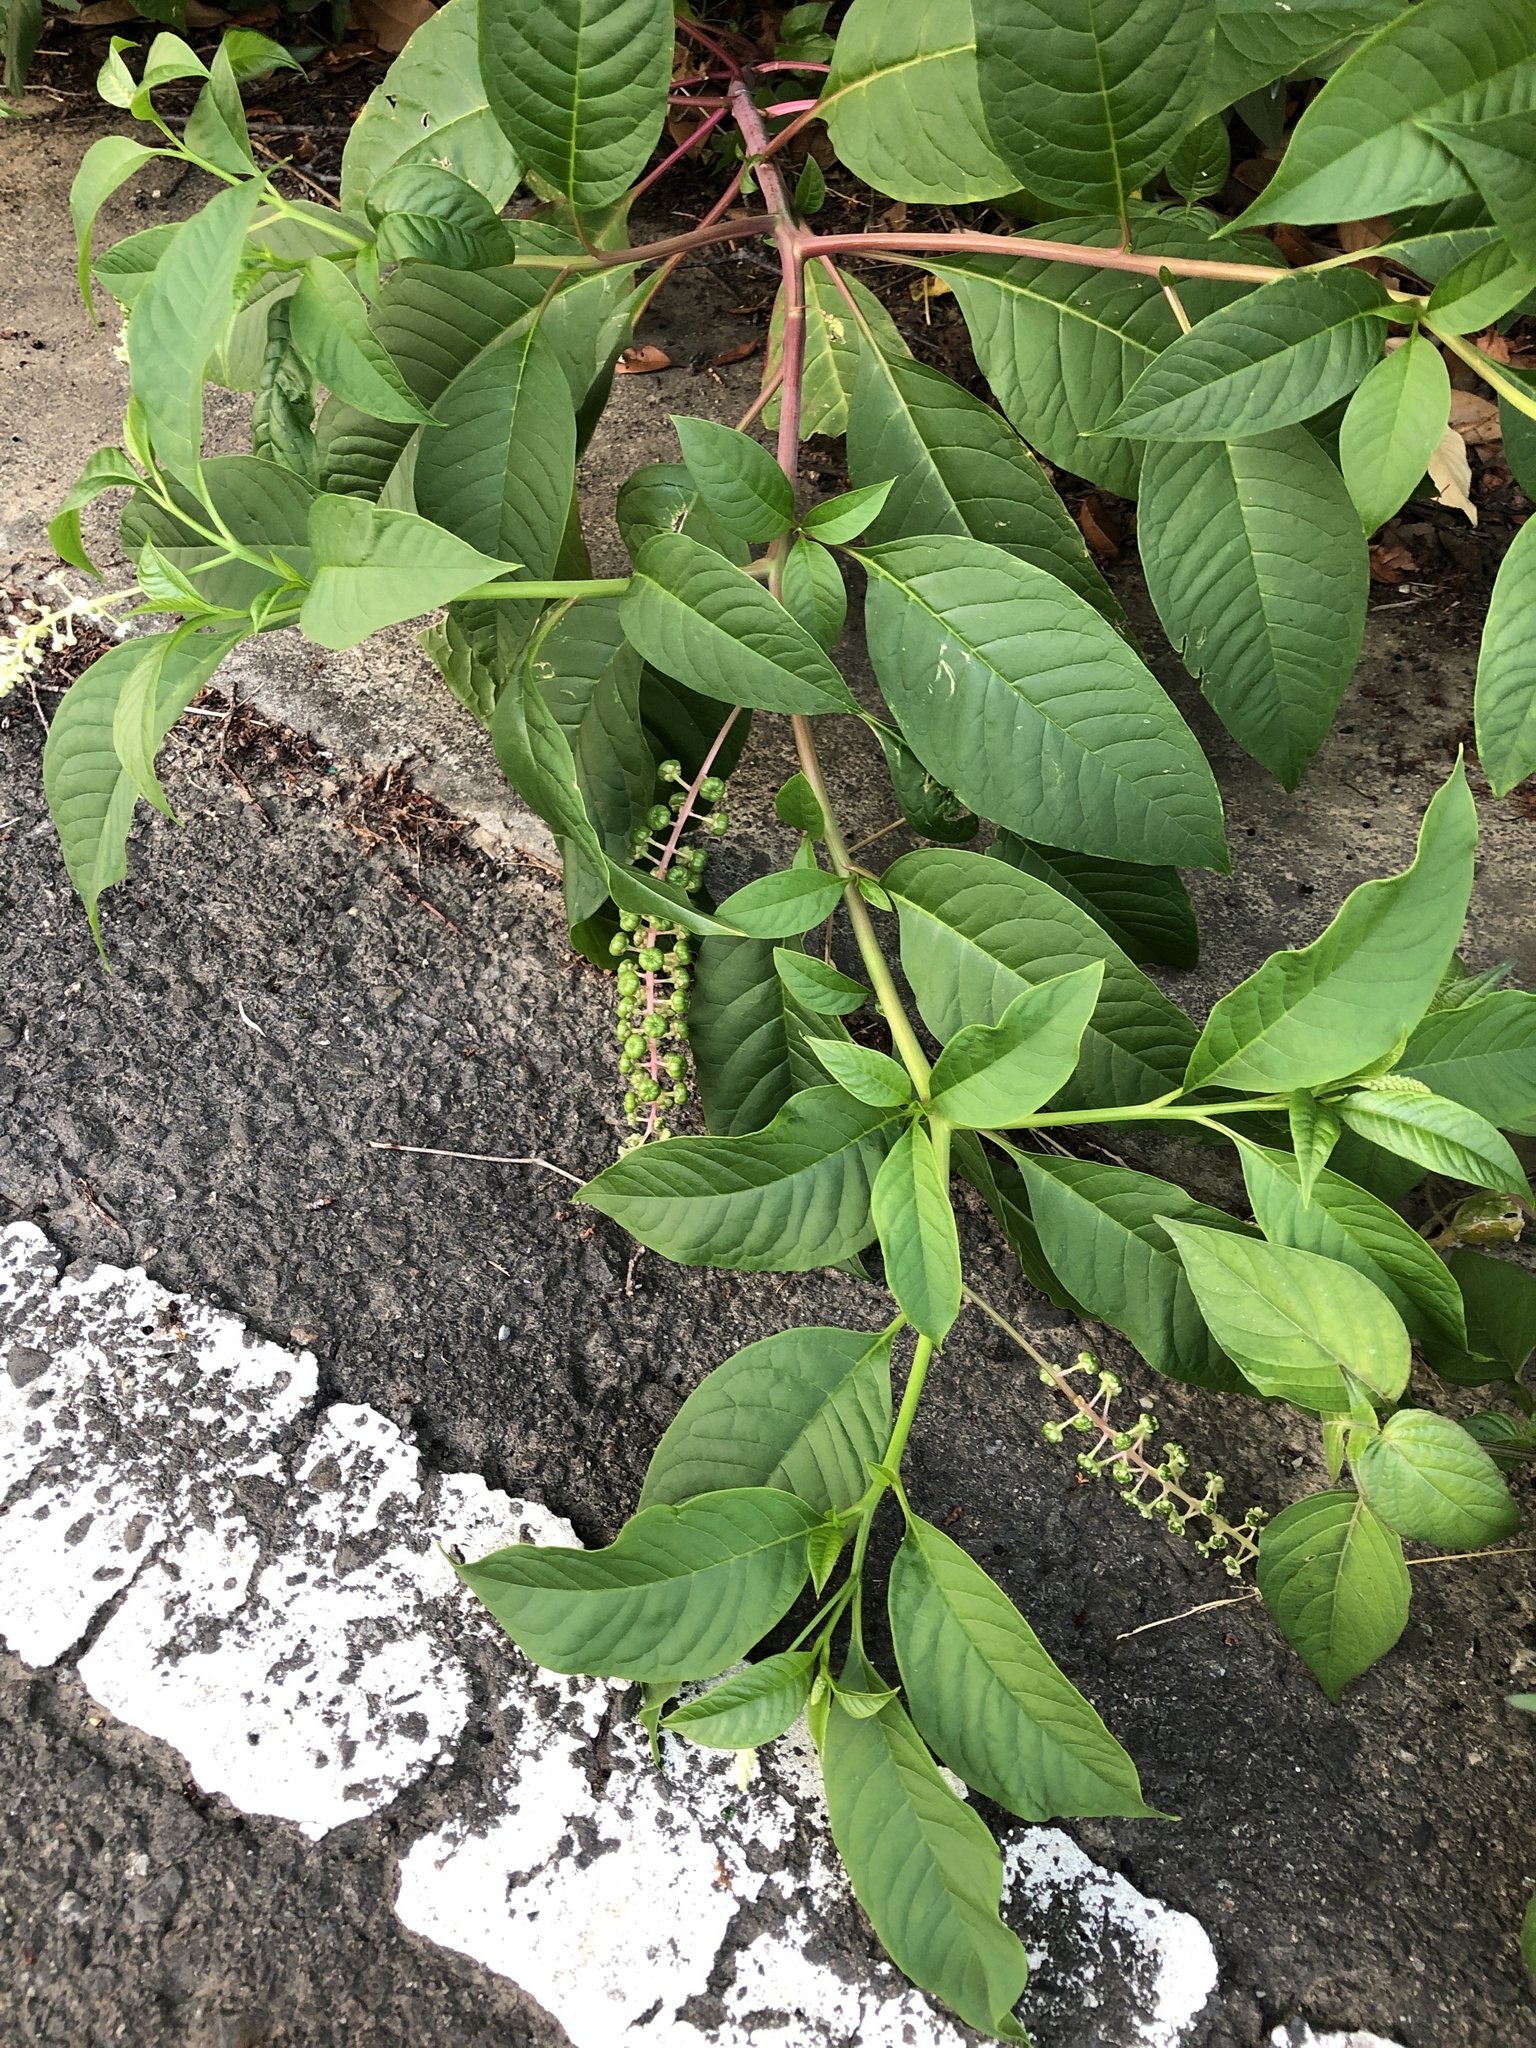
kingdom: Plantae
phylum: Tracheophyta
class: Magnoliopsida
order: Caryophyllales
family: Phytolaccaceae
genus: Phytolacca
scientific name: Phytolacca americana
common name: American pokeweed
